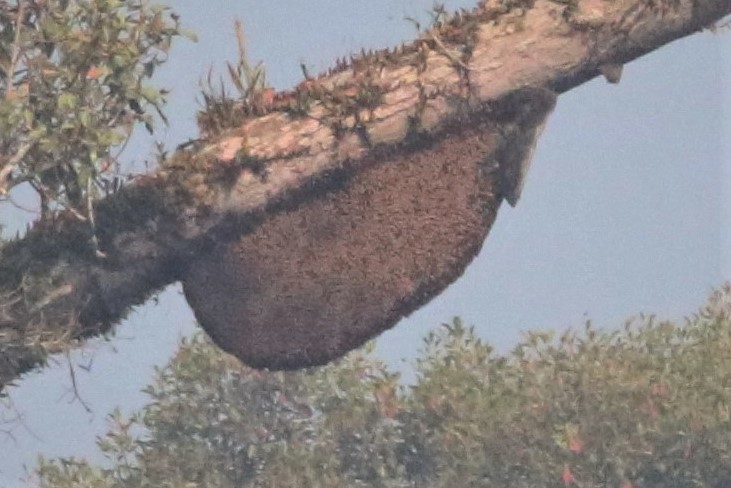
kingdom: Animalia
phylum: Arthropoda
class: Insecta
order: Hymenoptera
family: Apidae
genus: Apis
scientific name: Apis dorsata
